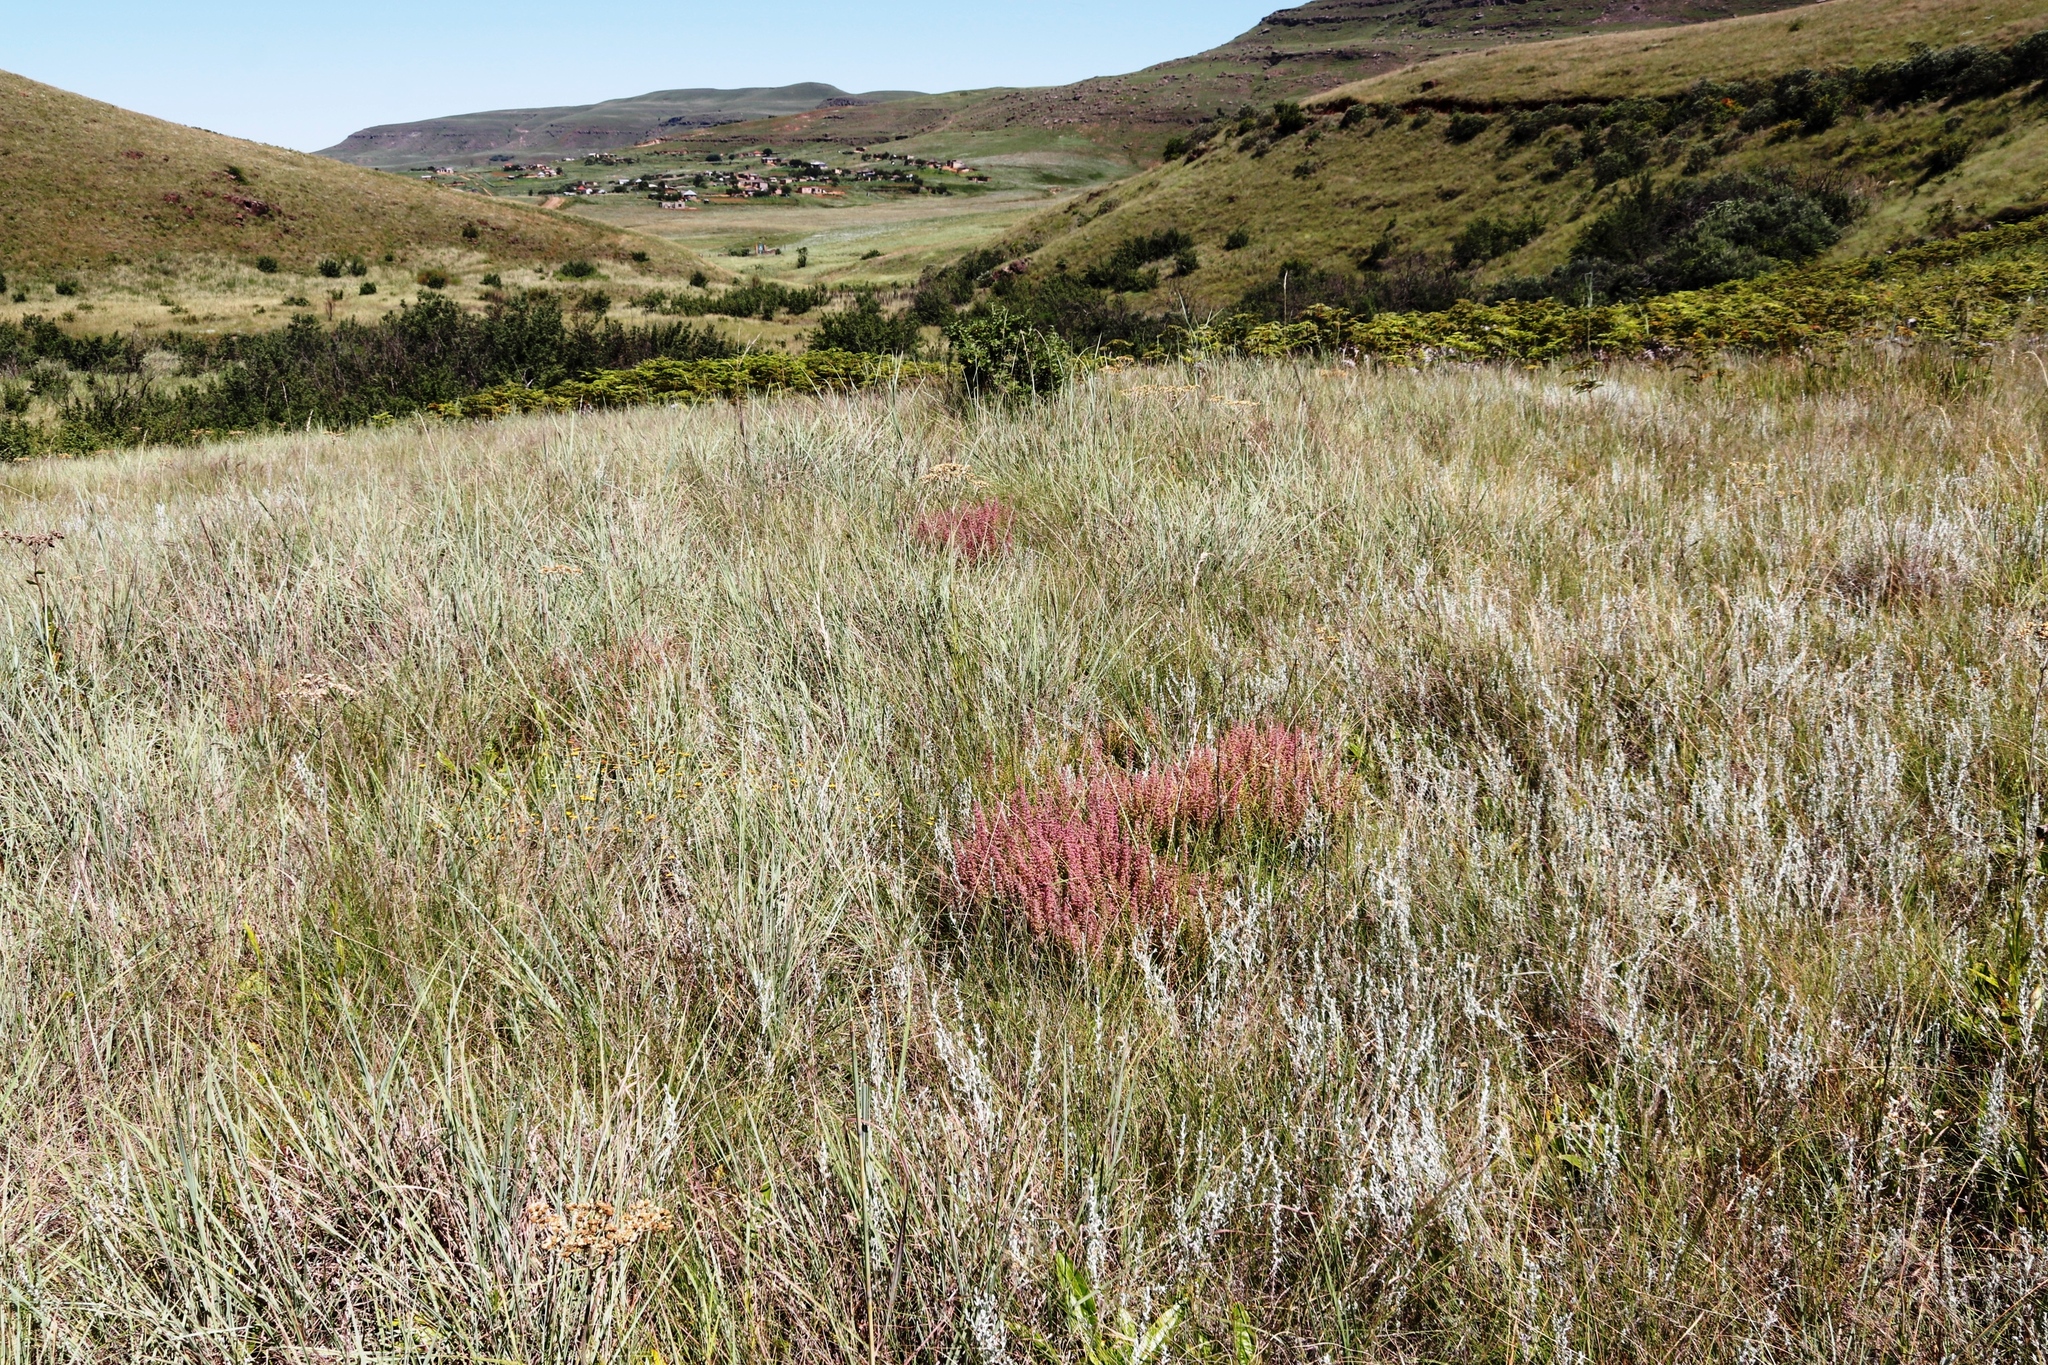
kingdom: Plantae
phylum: Tracheophyta
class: Magnoliopsida
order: Ericales
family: Ericaceae
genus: Erica
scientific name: Erica woodii
